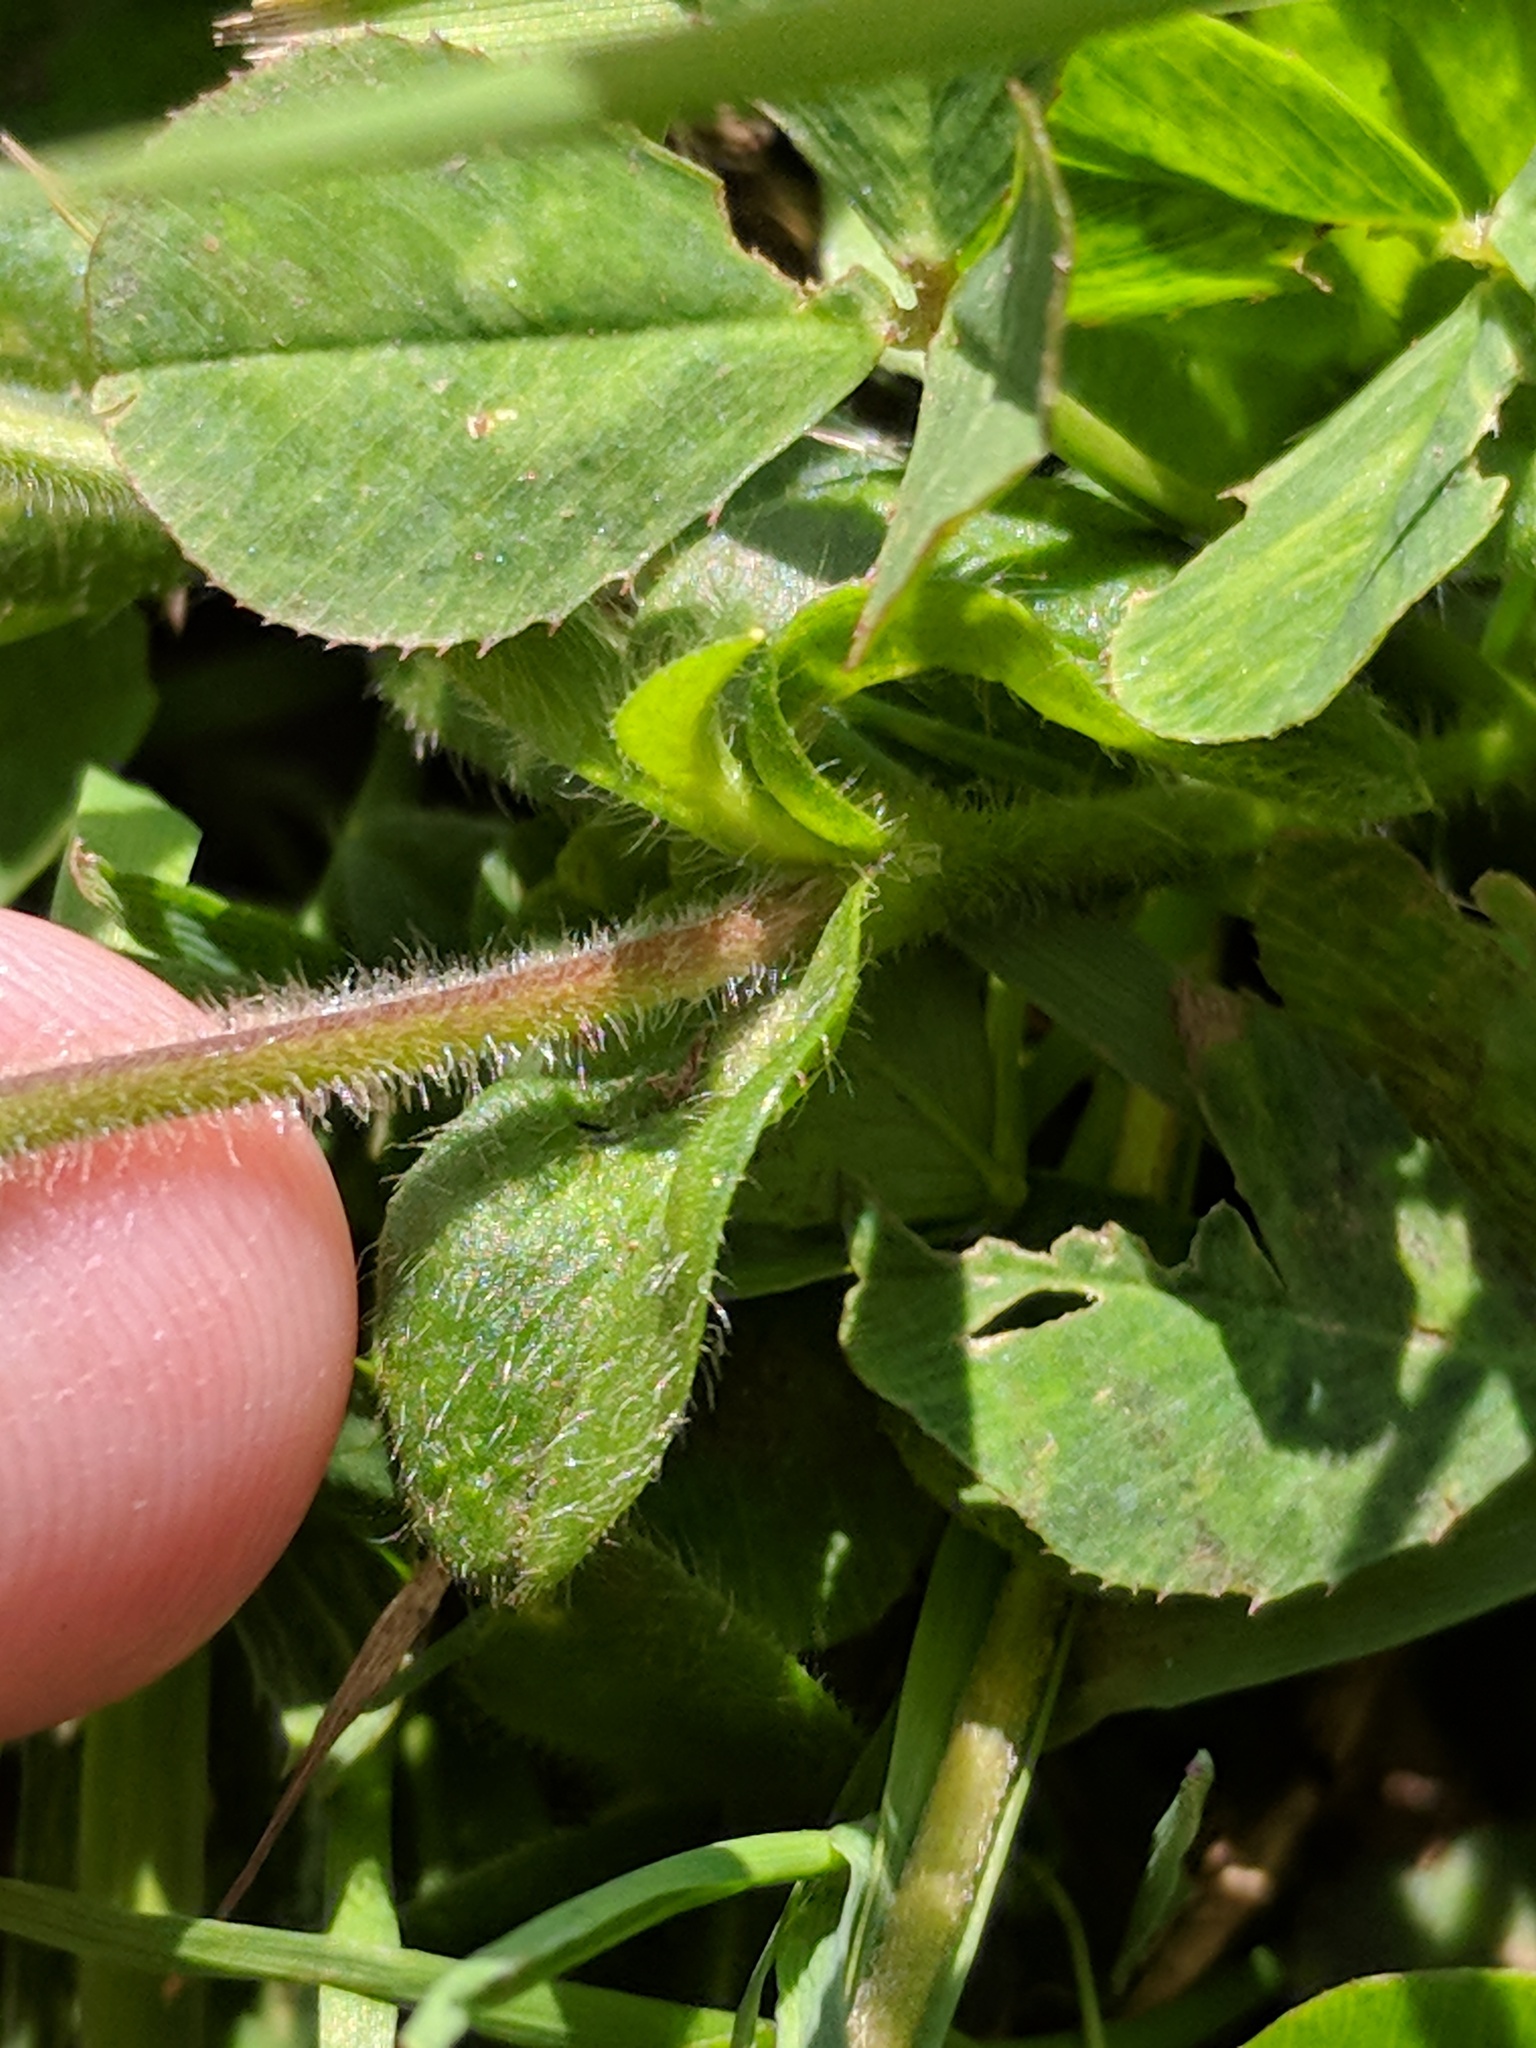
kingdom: Plantae
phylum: Tracheophyta
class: Magnoliopsida
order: Caryophyllales
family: Caryophyllaceae
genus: Cerastium
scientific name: Cerastium fontanum
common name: Common mouse-ear
